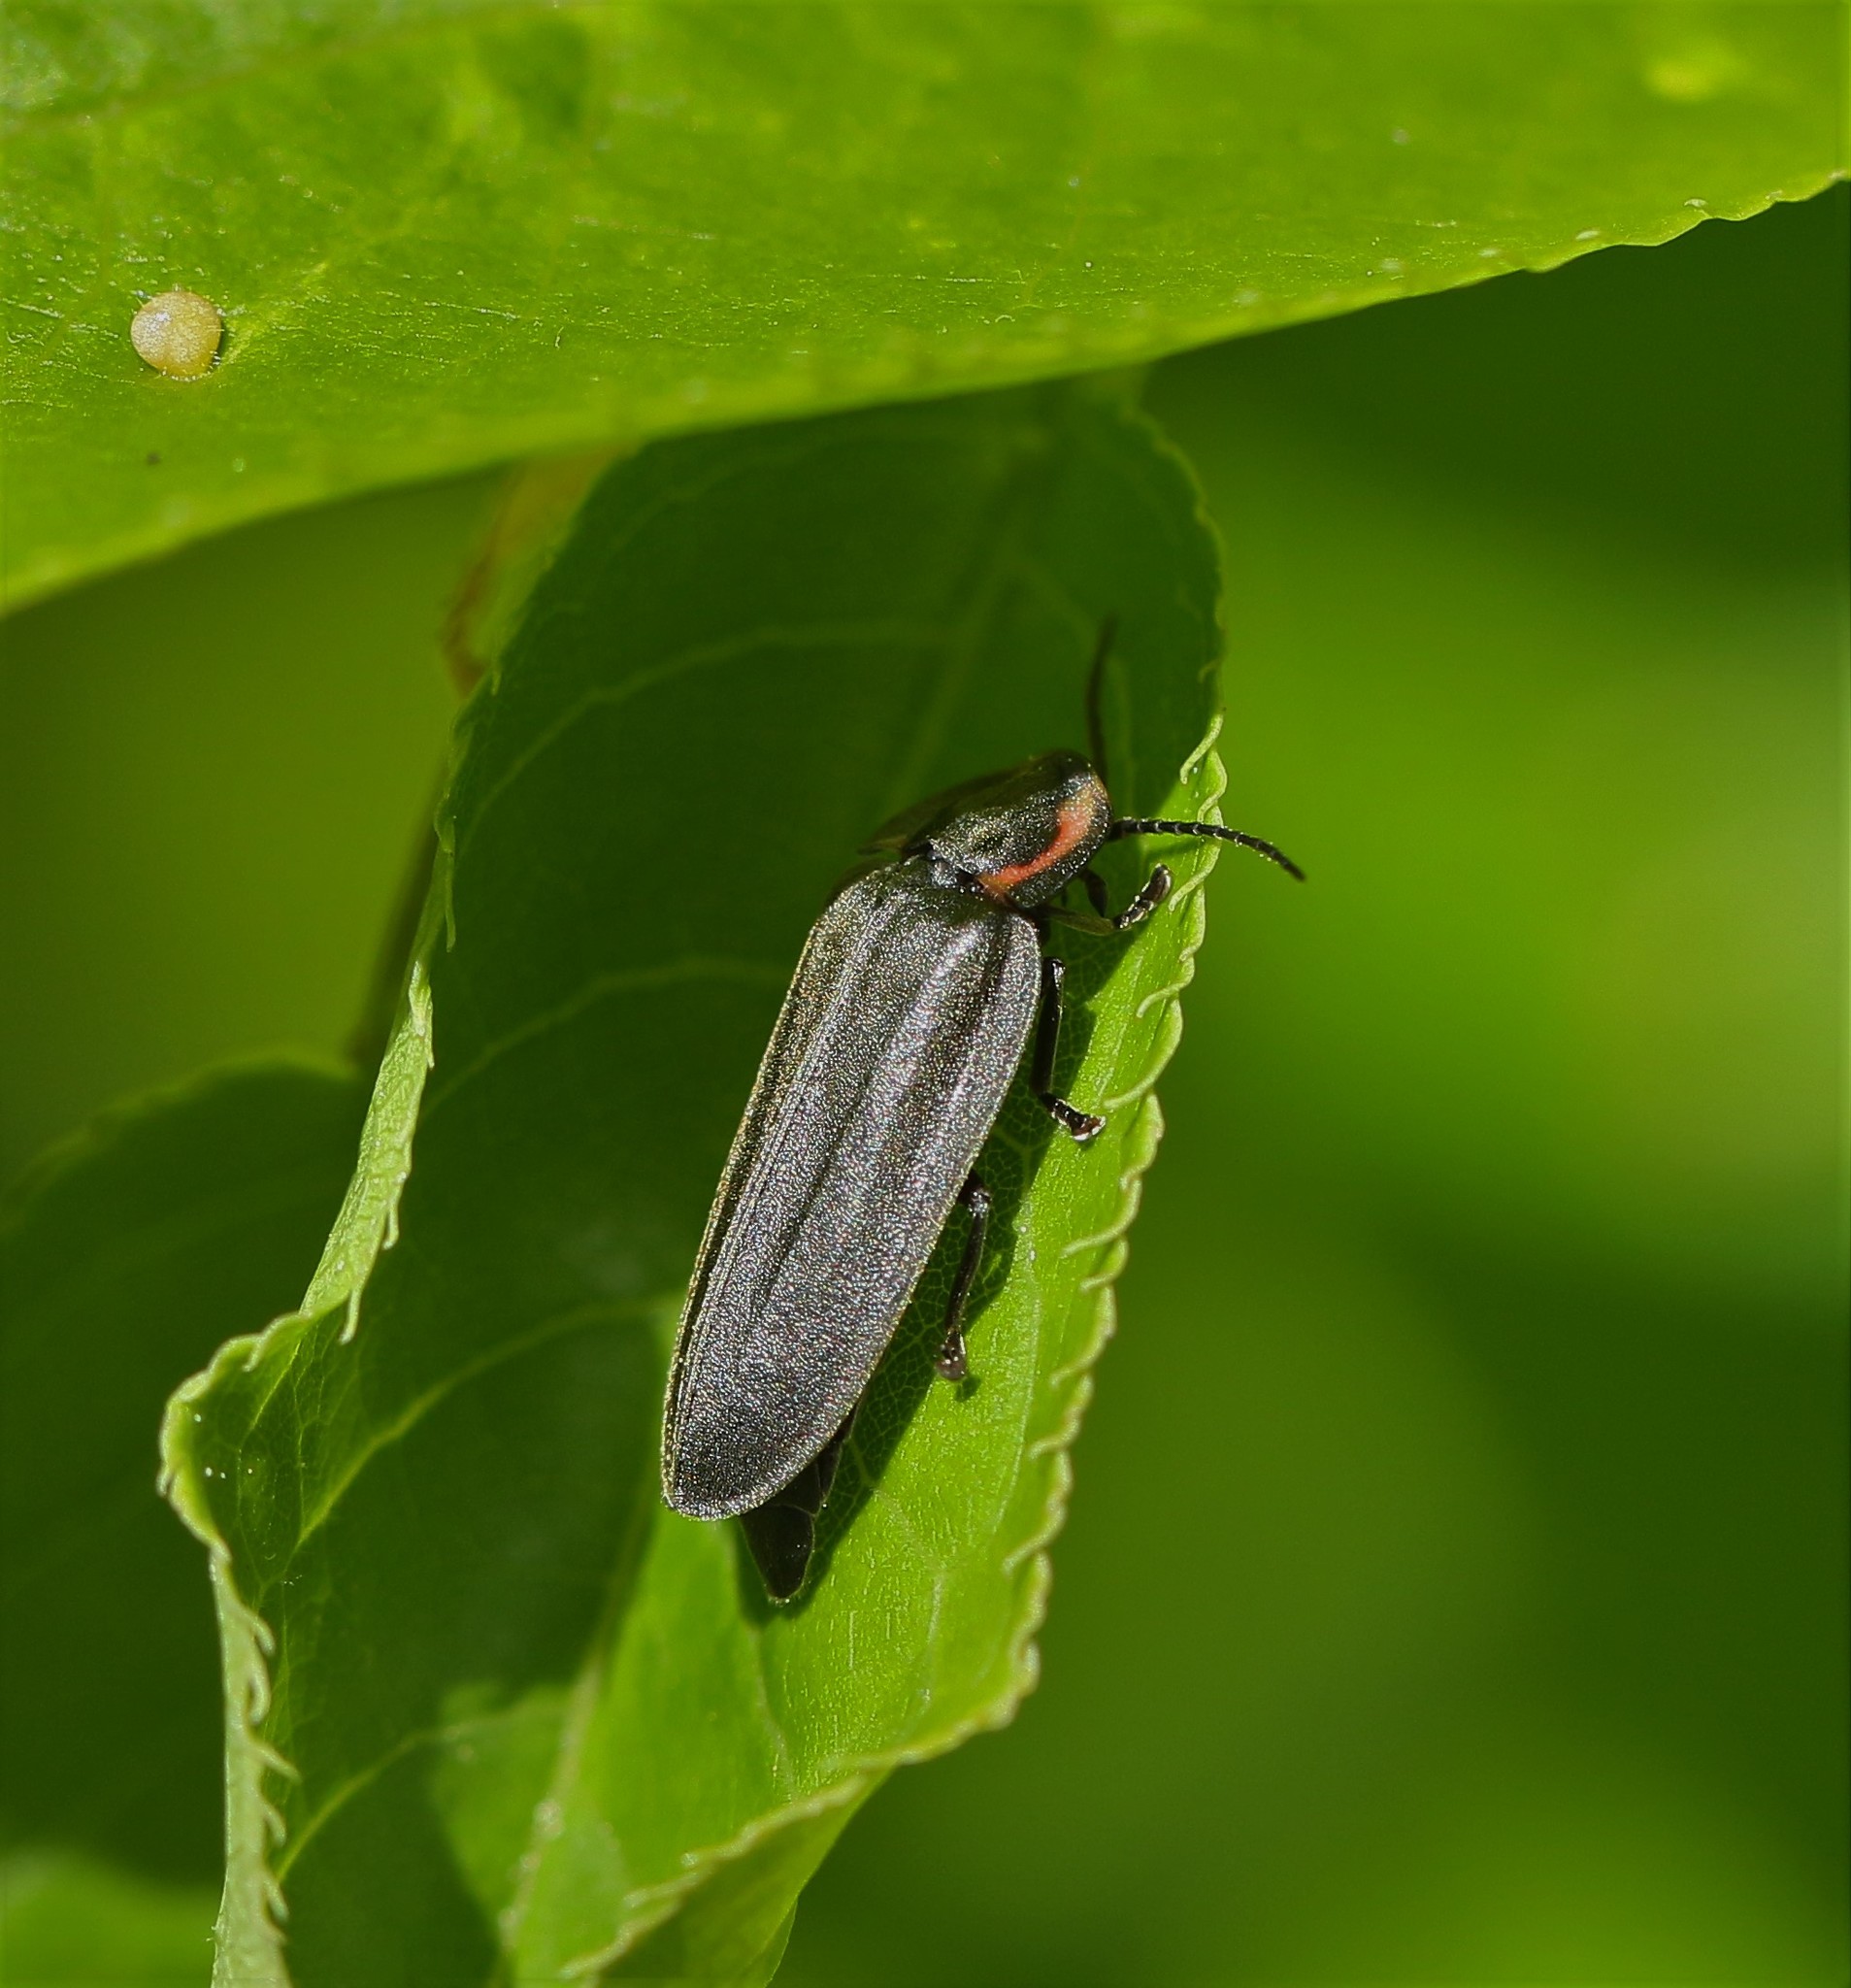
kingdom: Animalia
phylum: Arthropoda
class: Insecta
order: Coleoptera
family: Lampyridae
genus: Photinus
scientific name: Photinus corrusca
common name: Winter firefly
